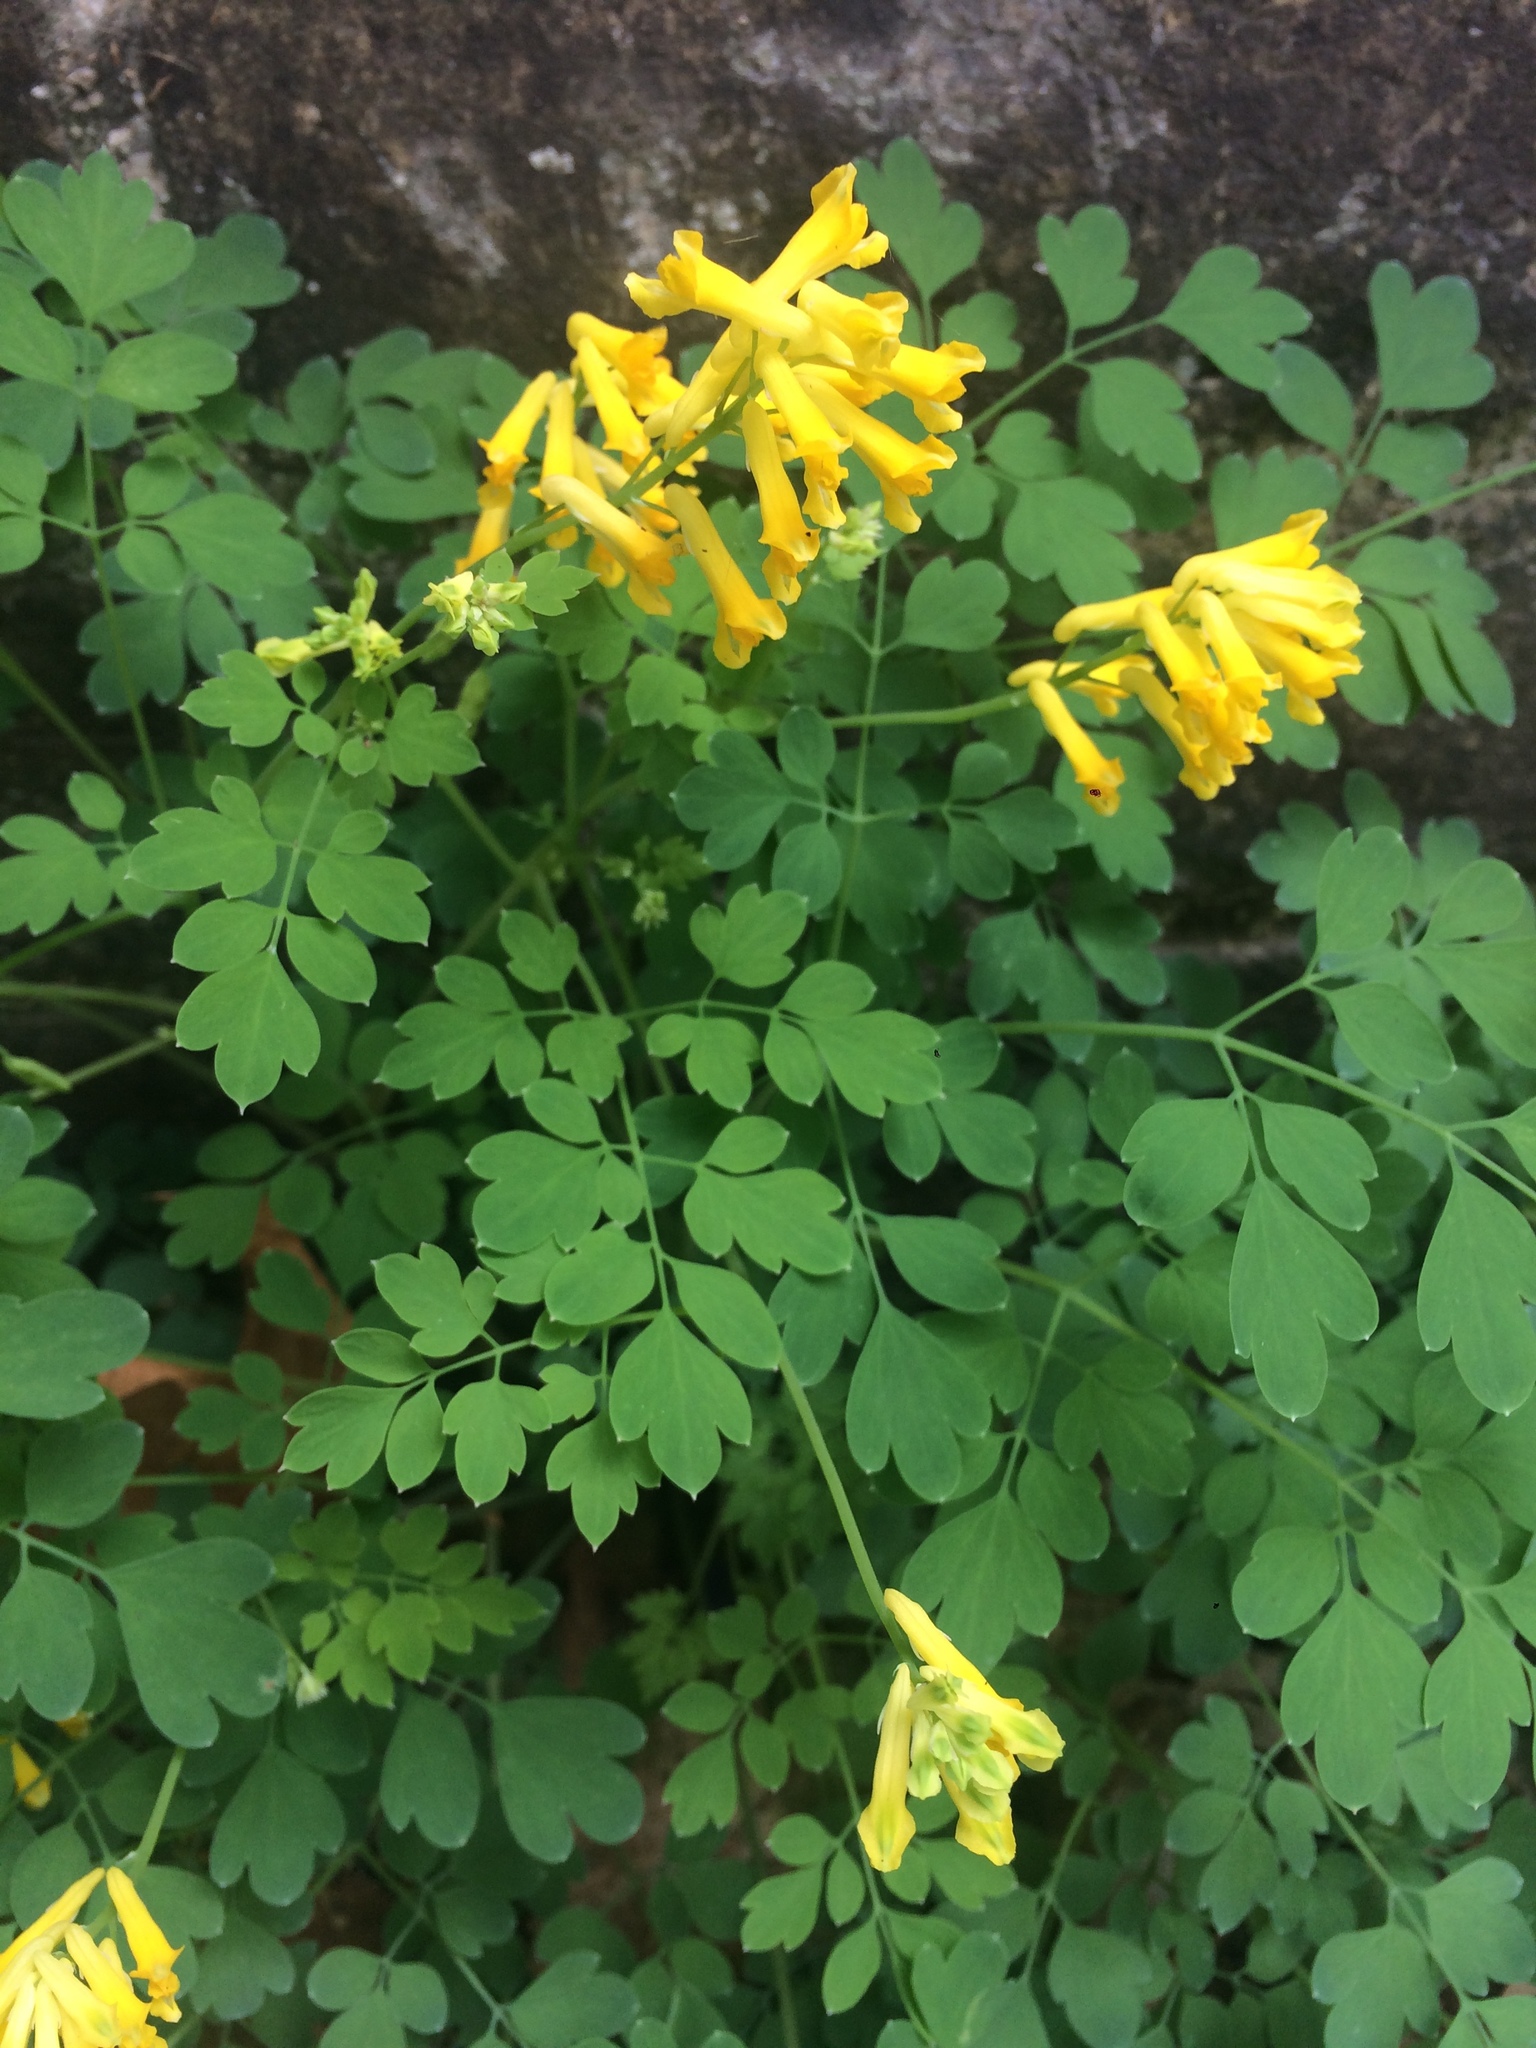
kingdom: Plantae
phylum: Tracheophyta
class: Magnoliopsida
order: Ranunculales
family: Papaveraceae
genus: Pseudofumaria
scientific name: Pseudofumaria lutea
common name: Yellow corydalis
